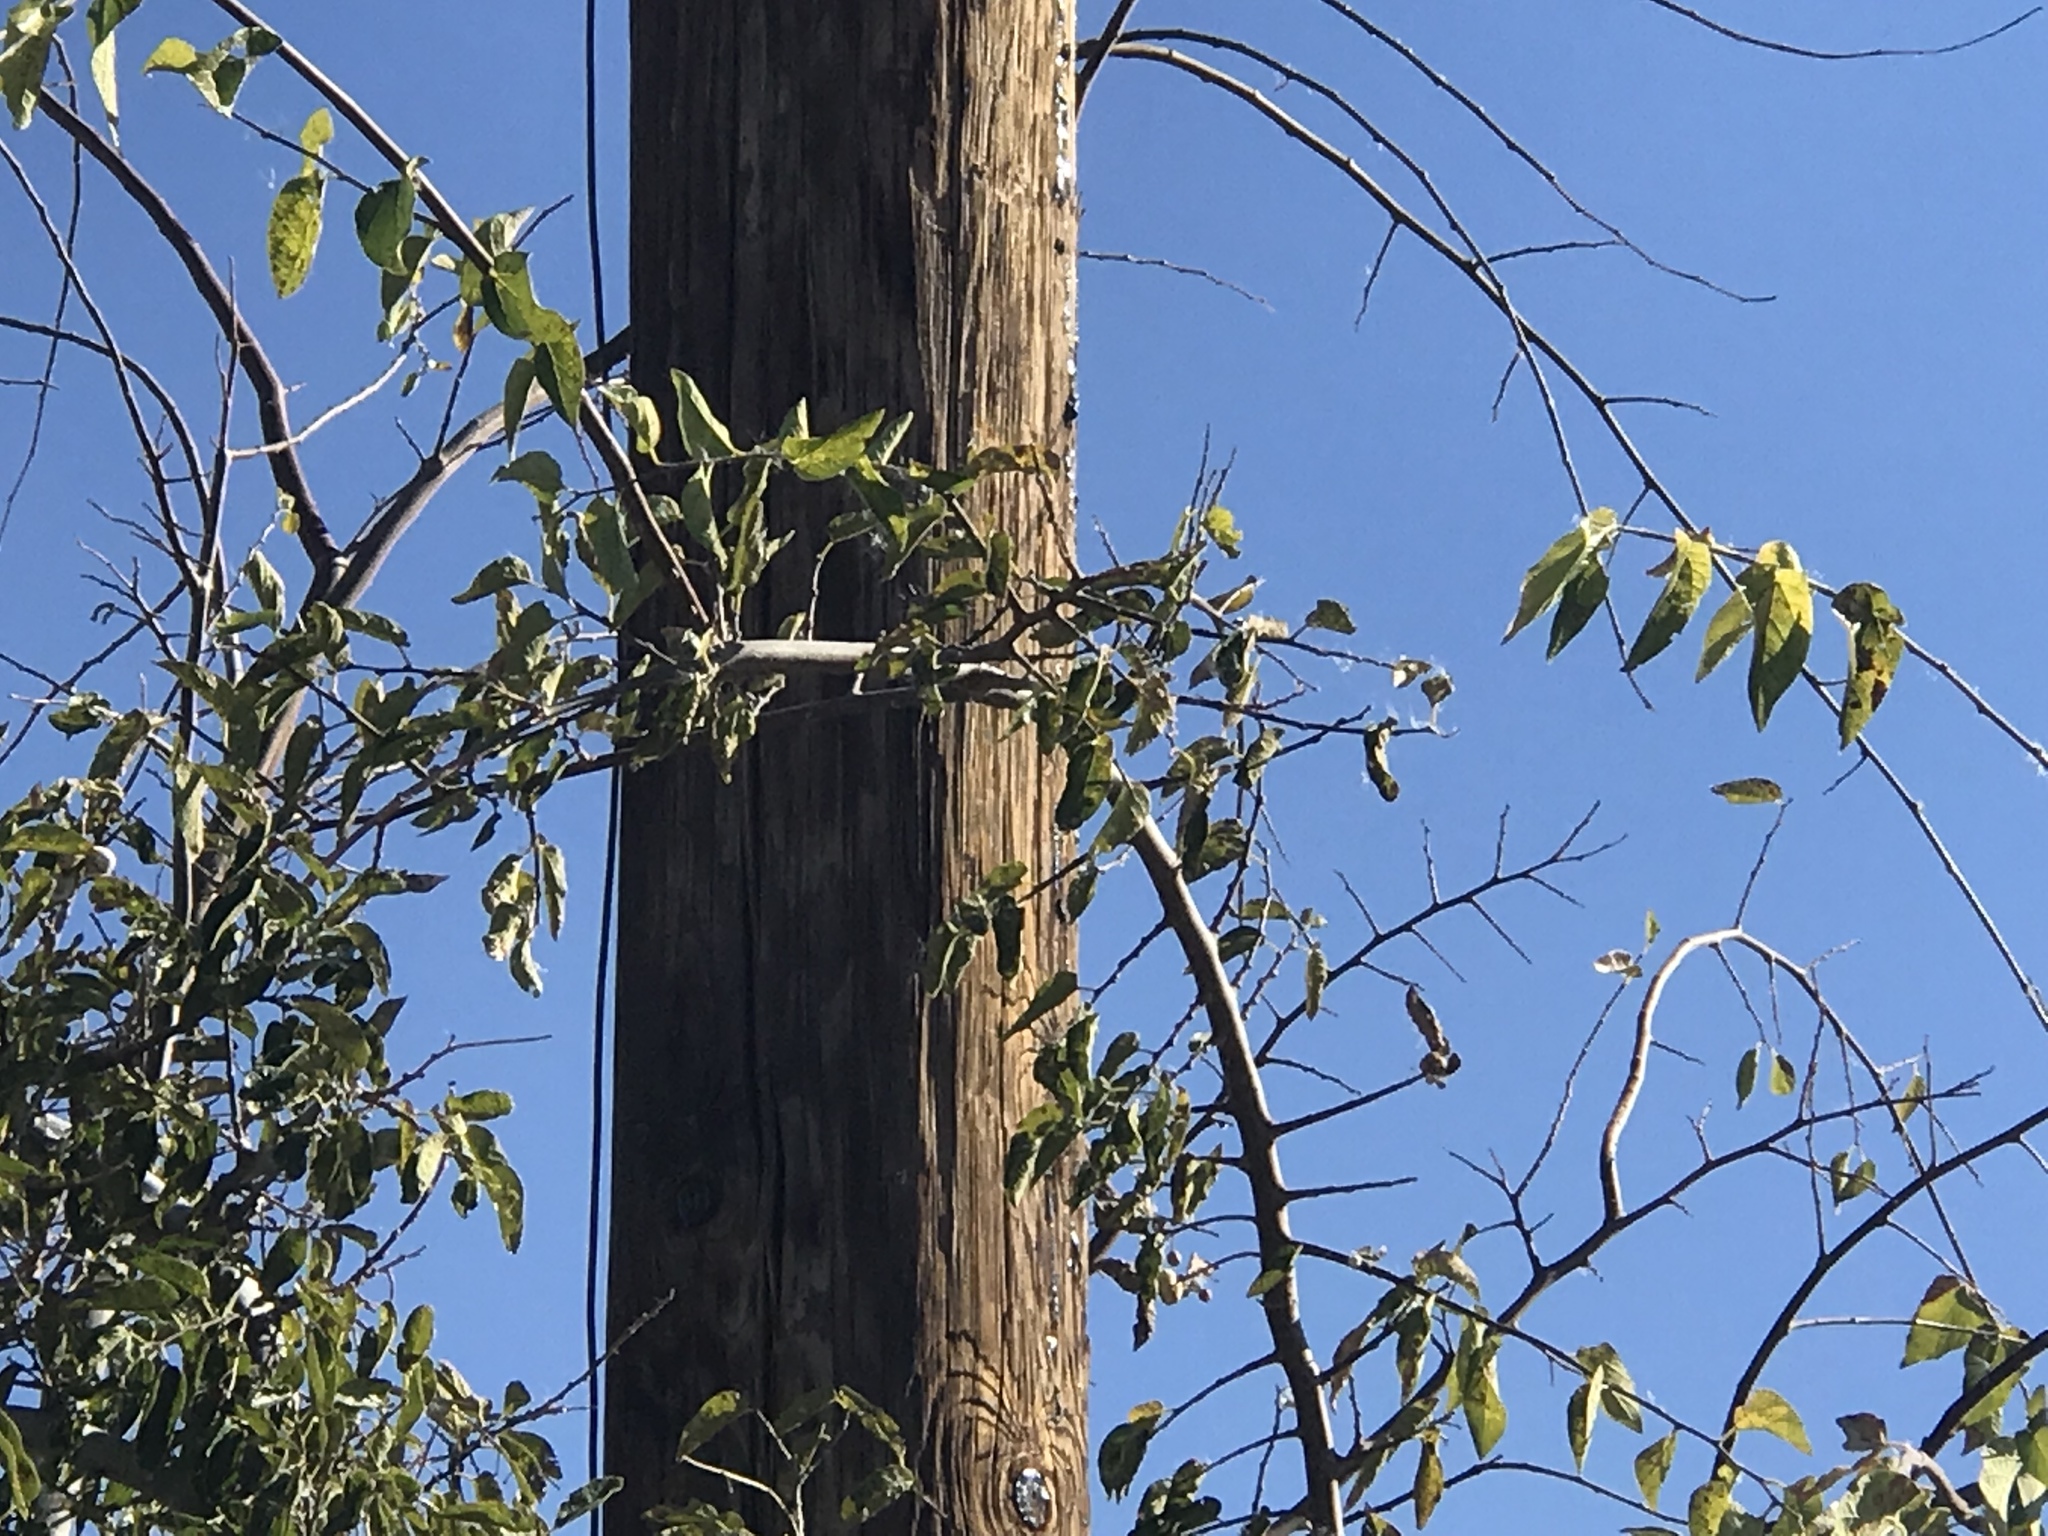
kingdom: Plantae
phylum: Tracheophyta
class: Magnoliopsida
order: Rosales
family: Cannabaceae
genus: Celtis
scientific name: Celtis reticulata
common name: Netleaf hackberry
